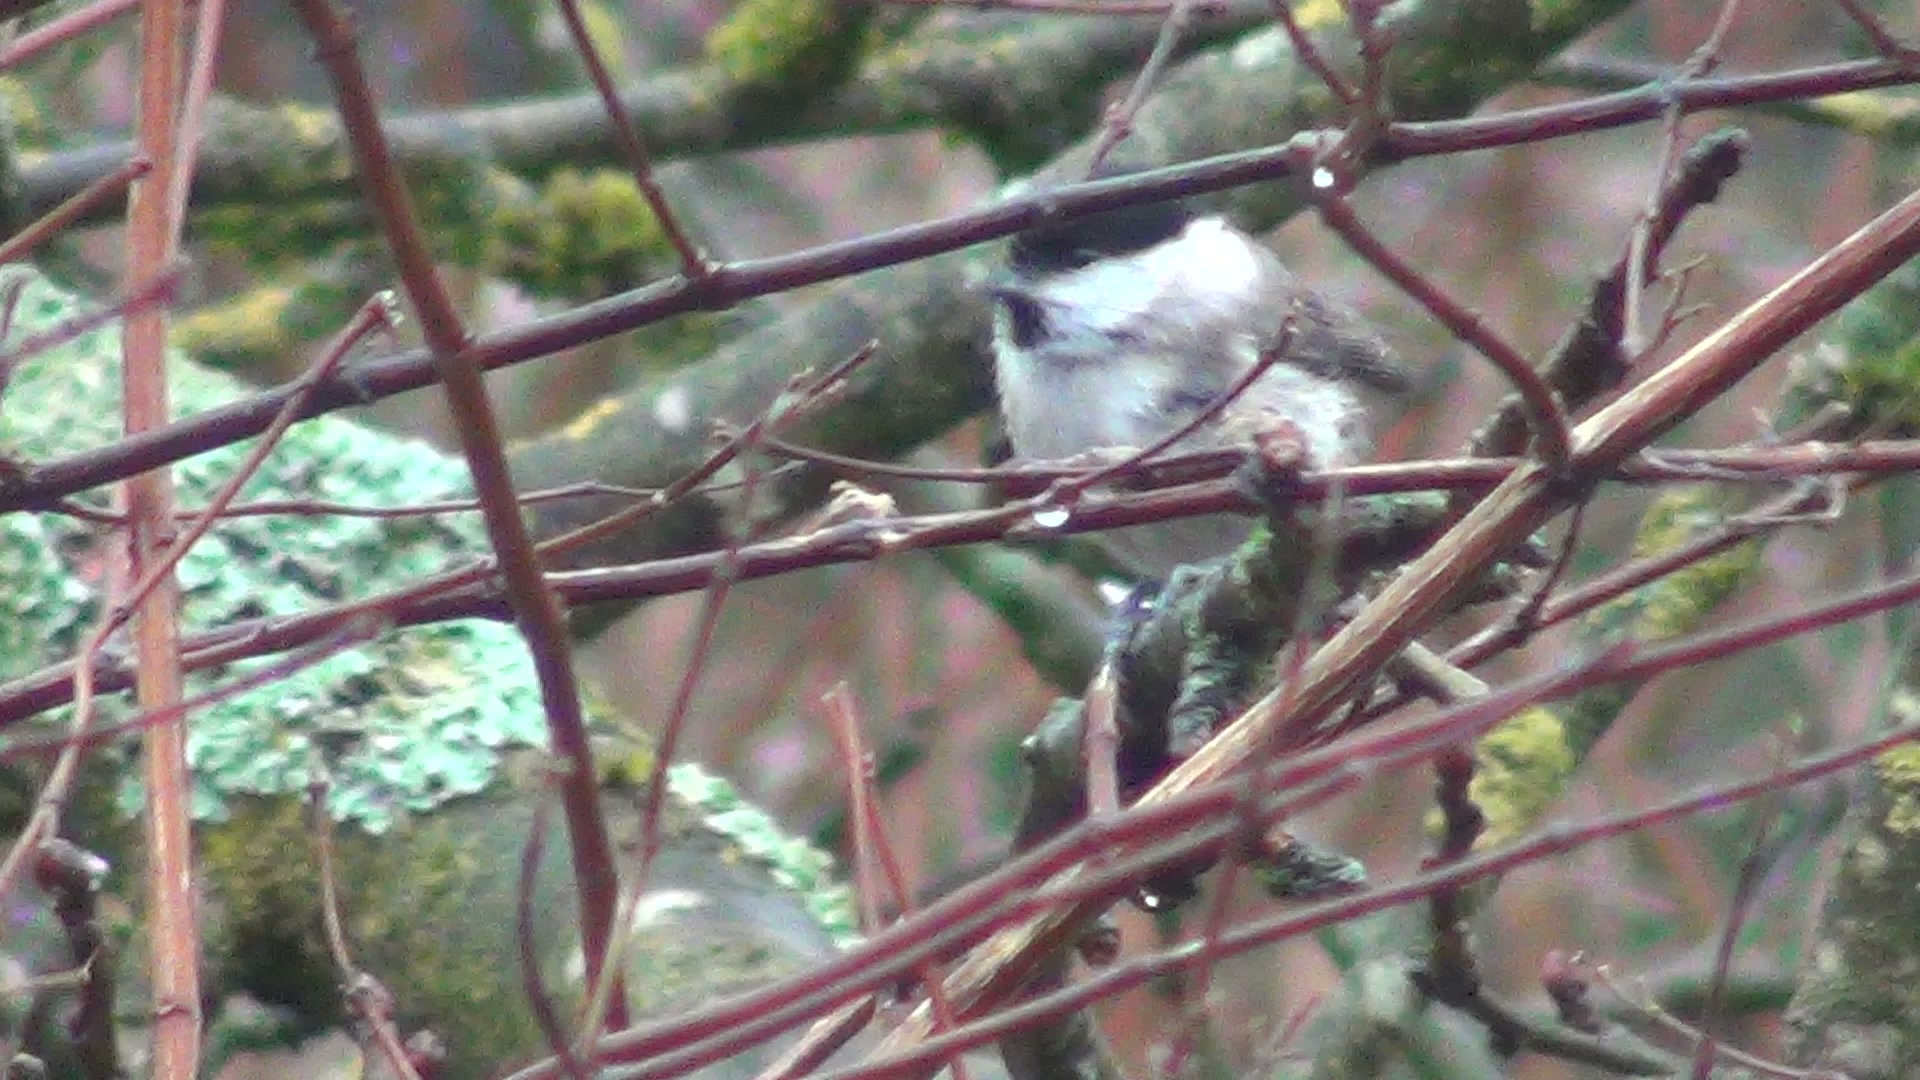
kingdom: Animalia
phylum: Chordata
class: Aves
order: Passeriformes
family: Paridae
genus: Poecile
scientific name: Poecile palustris
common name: Marsh tit
